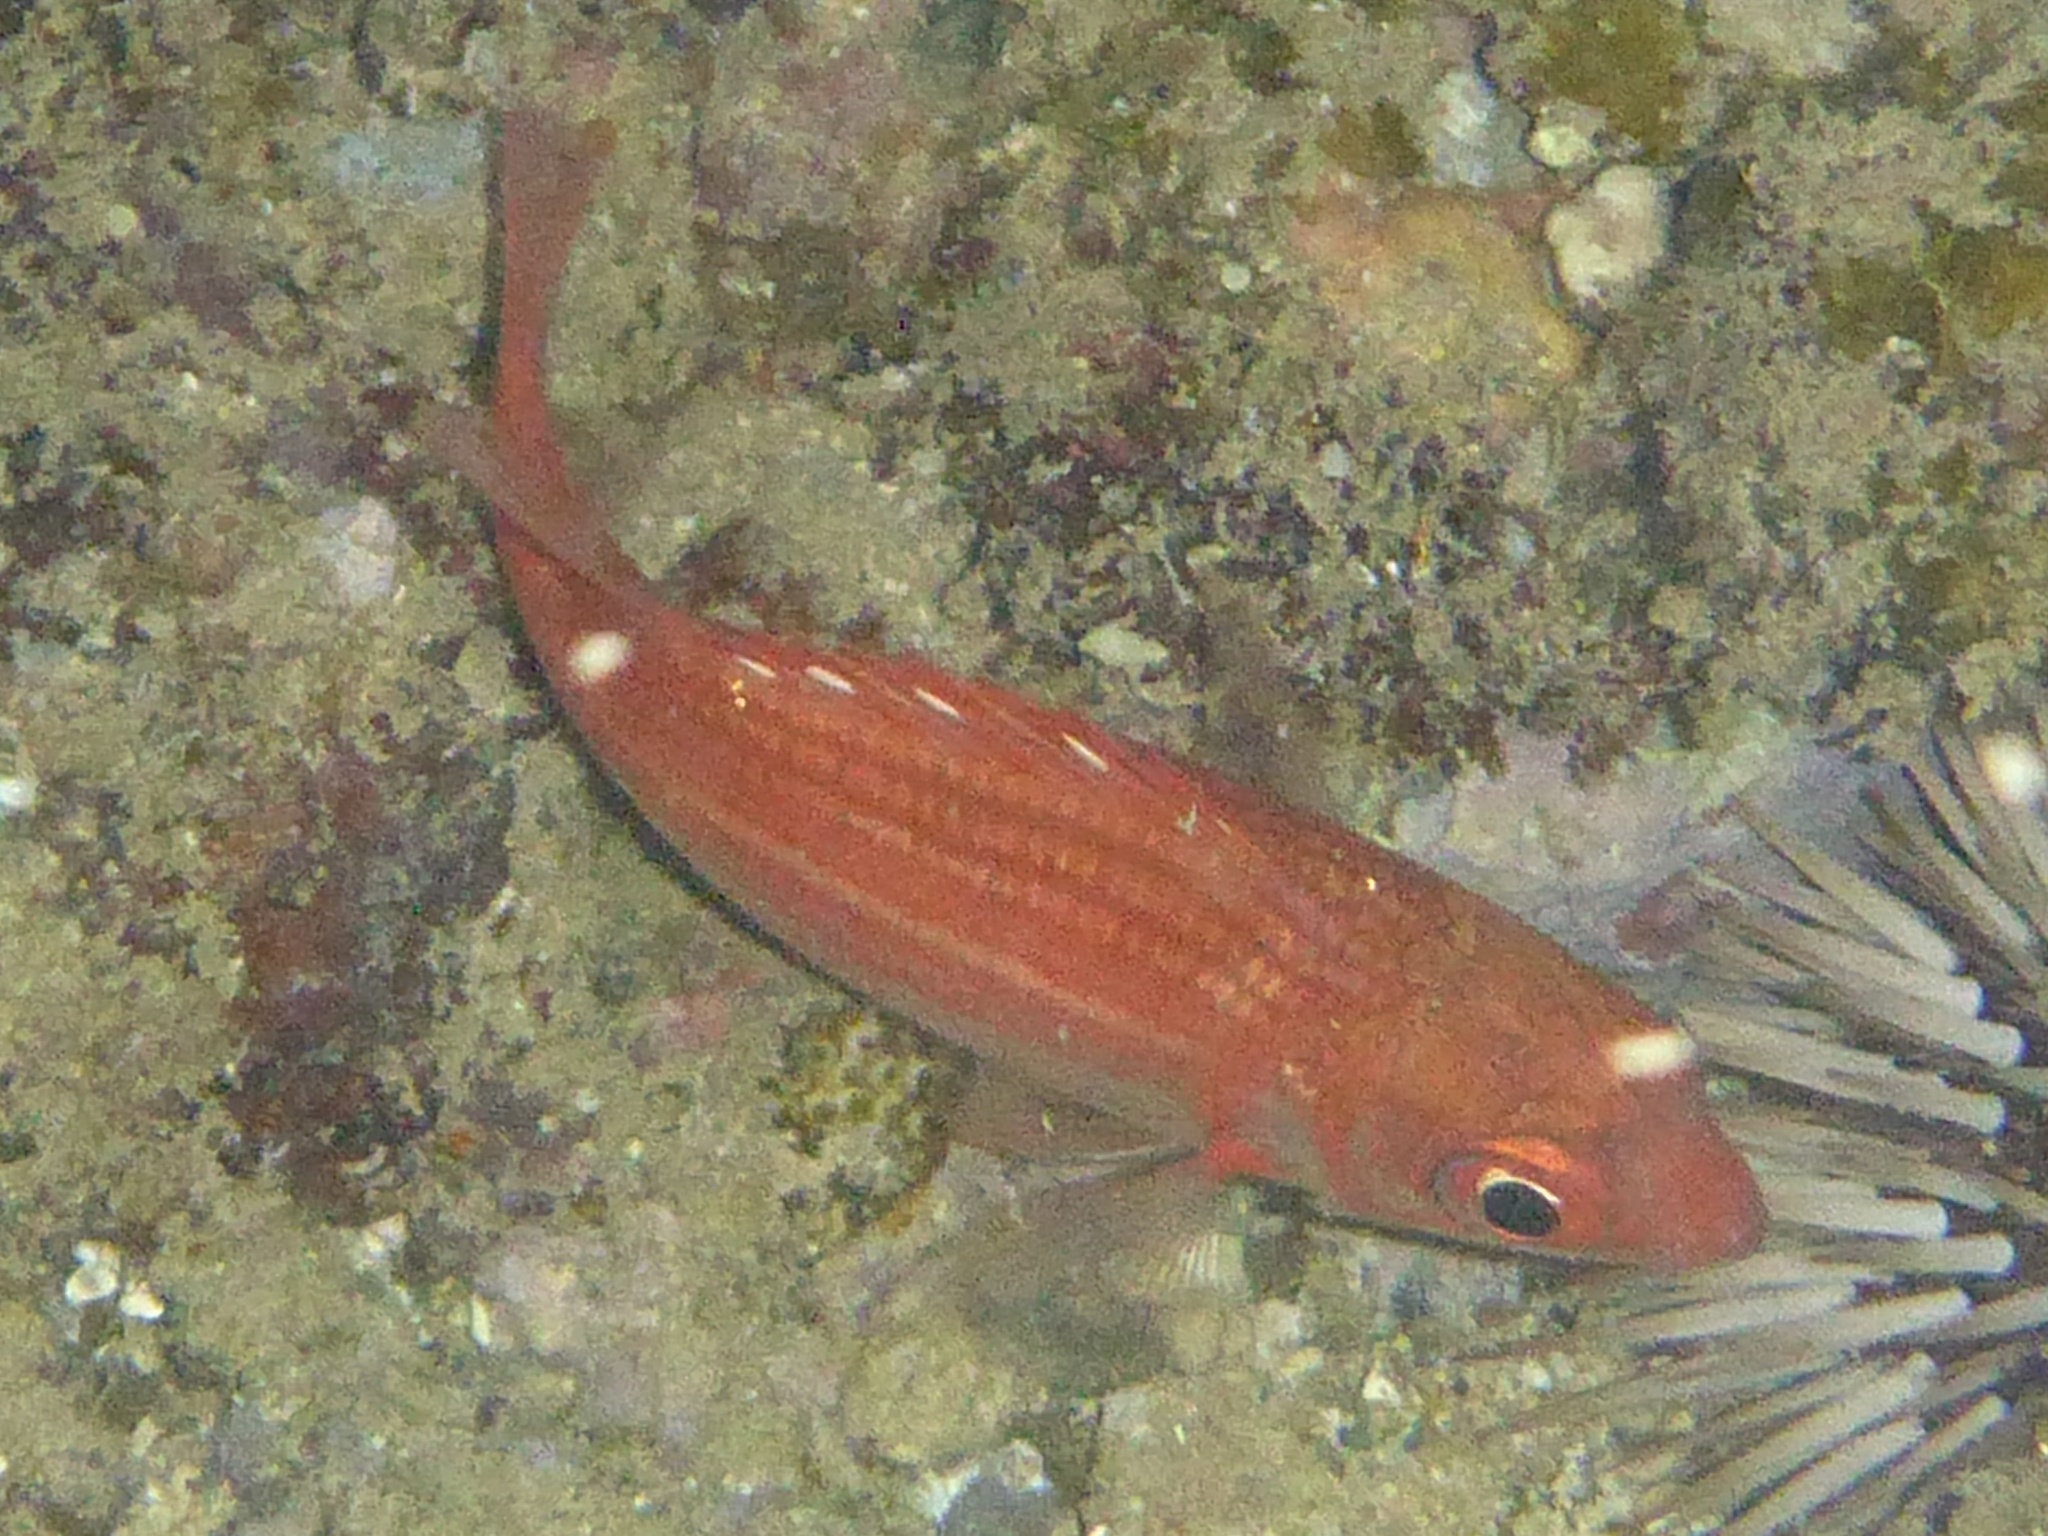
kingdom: Animalia
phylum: Chordata
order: Beryciformes
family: Holocentridae
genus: Sargocentron
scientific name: Sargocentron punctatissimum
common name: Peppered squirrelfish
